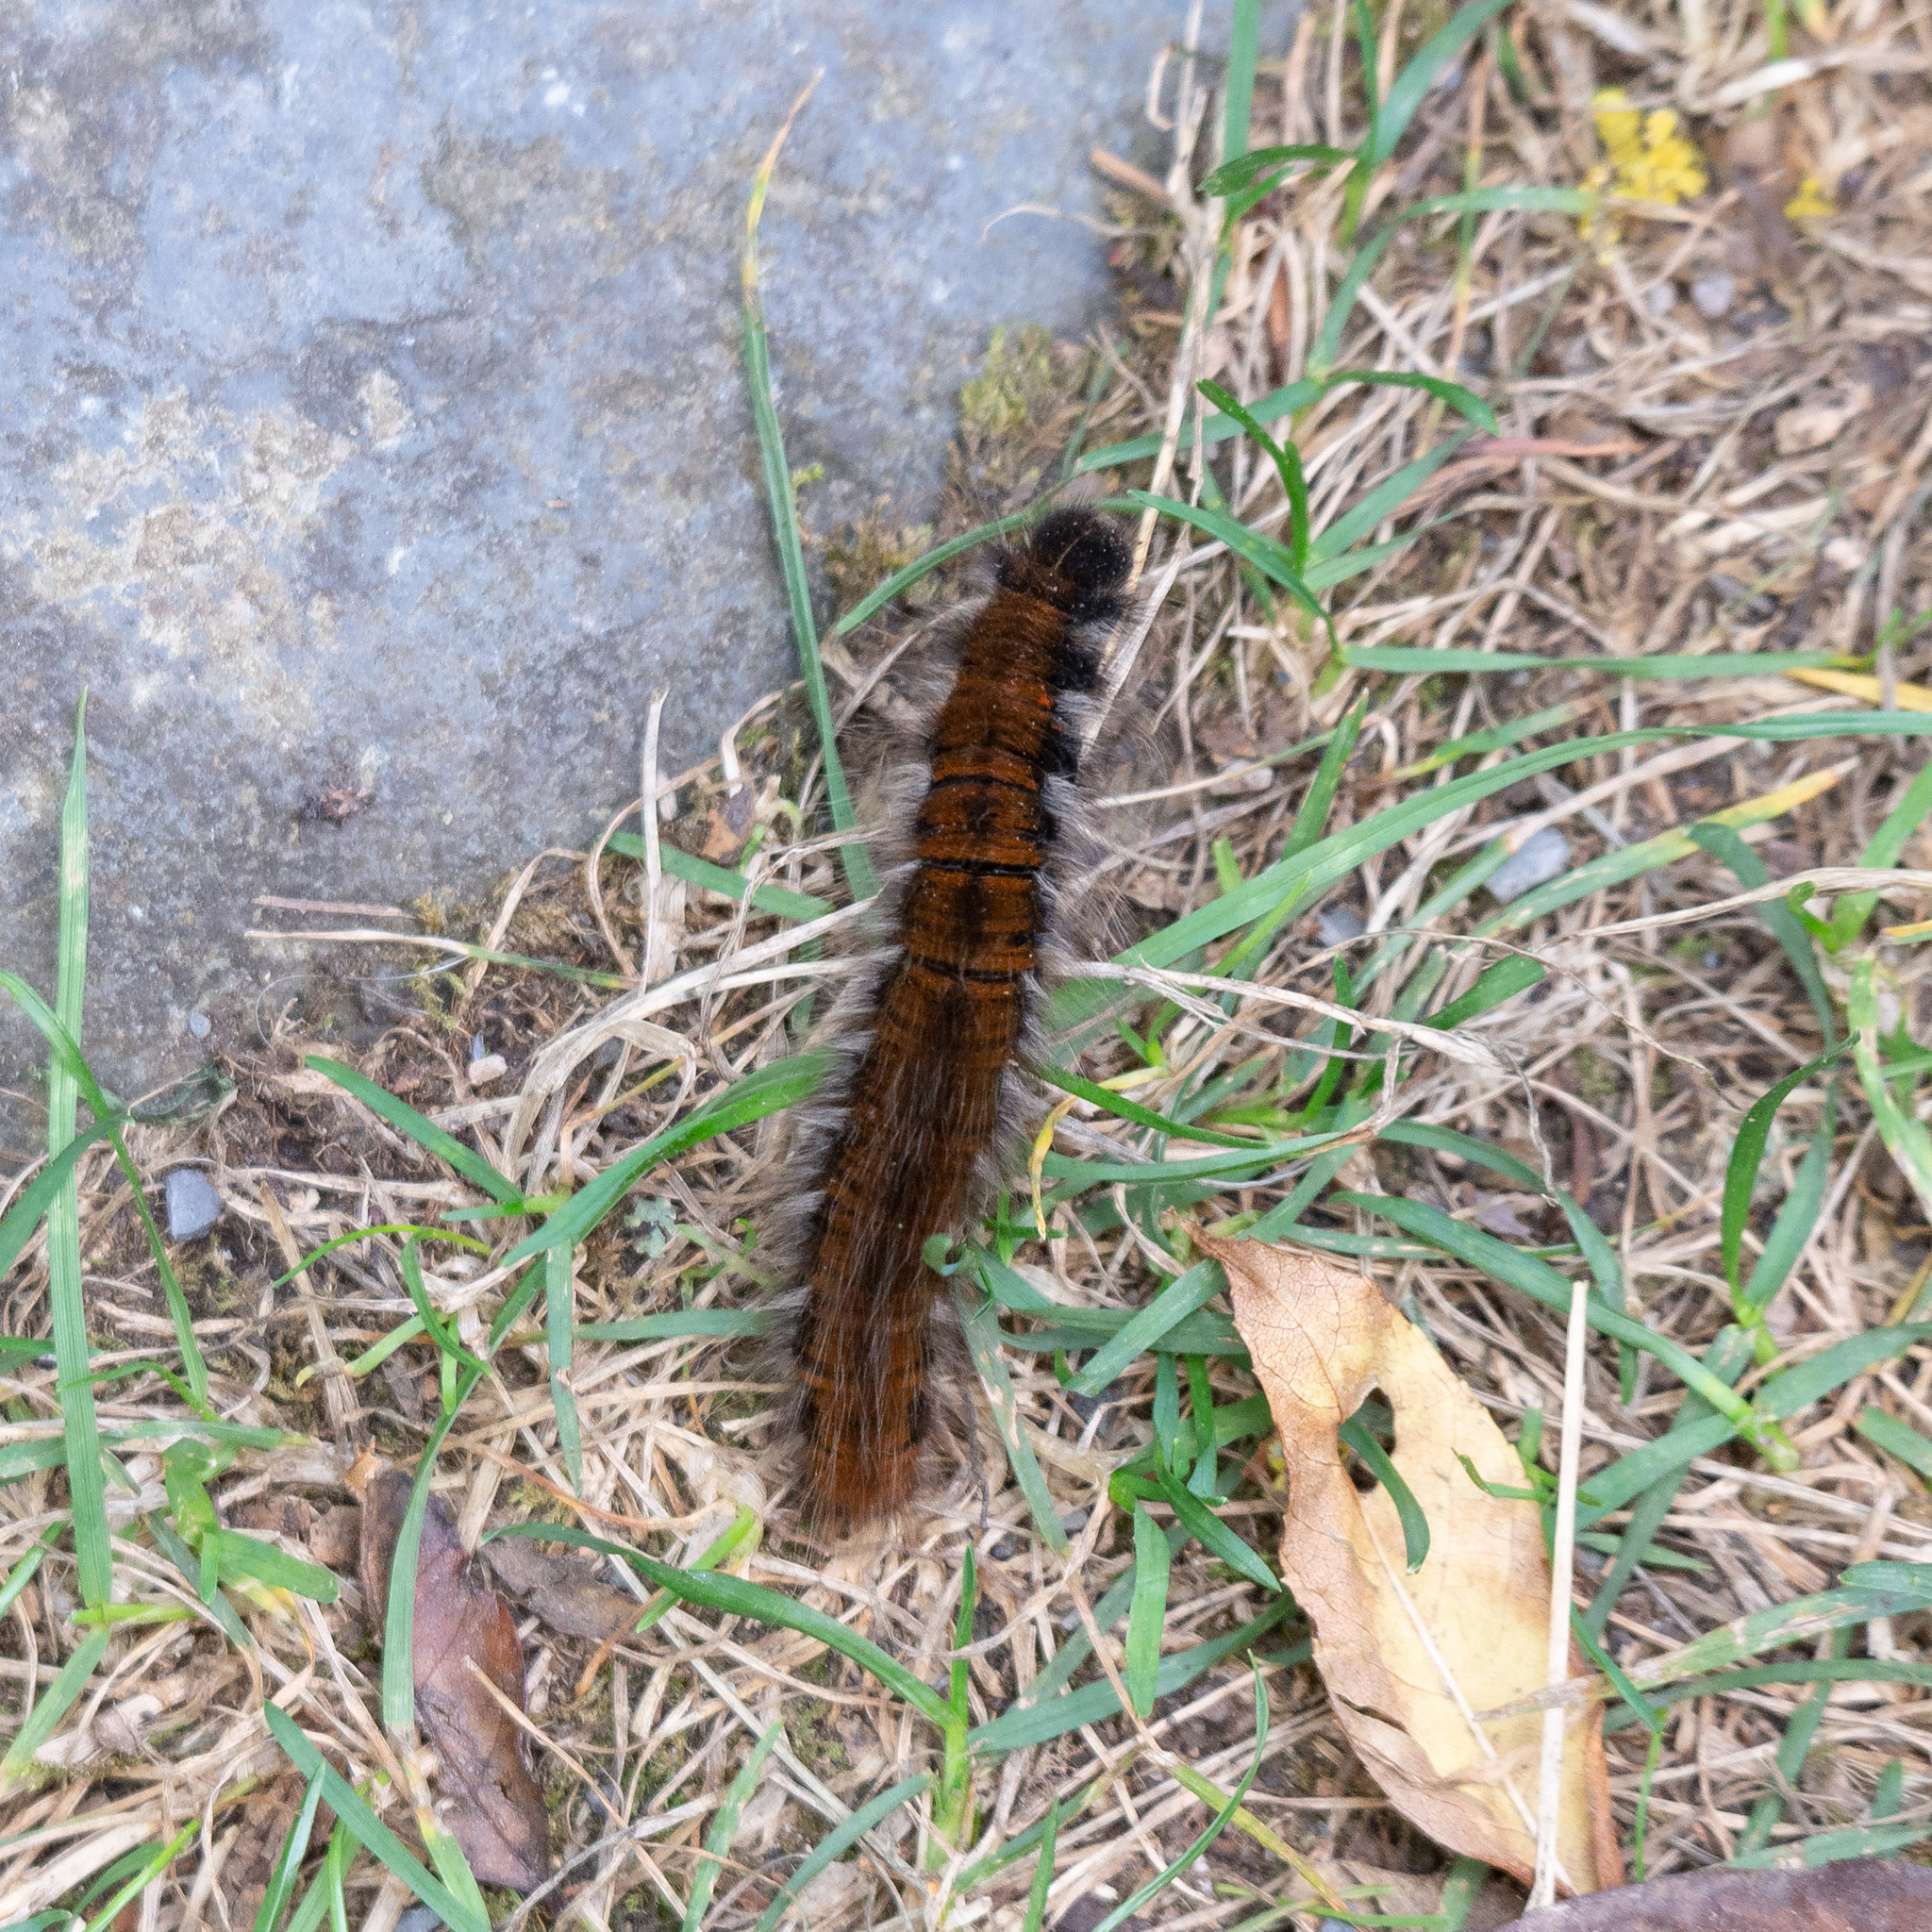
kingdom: Animalia
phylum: Arthropoda
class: Insecta
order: Lepidoptera
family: Lasiocampidae
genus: Macrothylacia
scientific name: Macrothylacia rubi
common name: Fox moth
